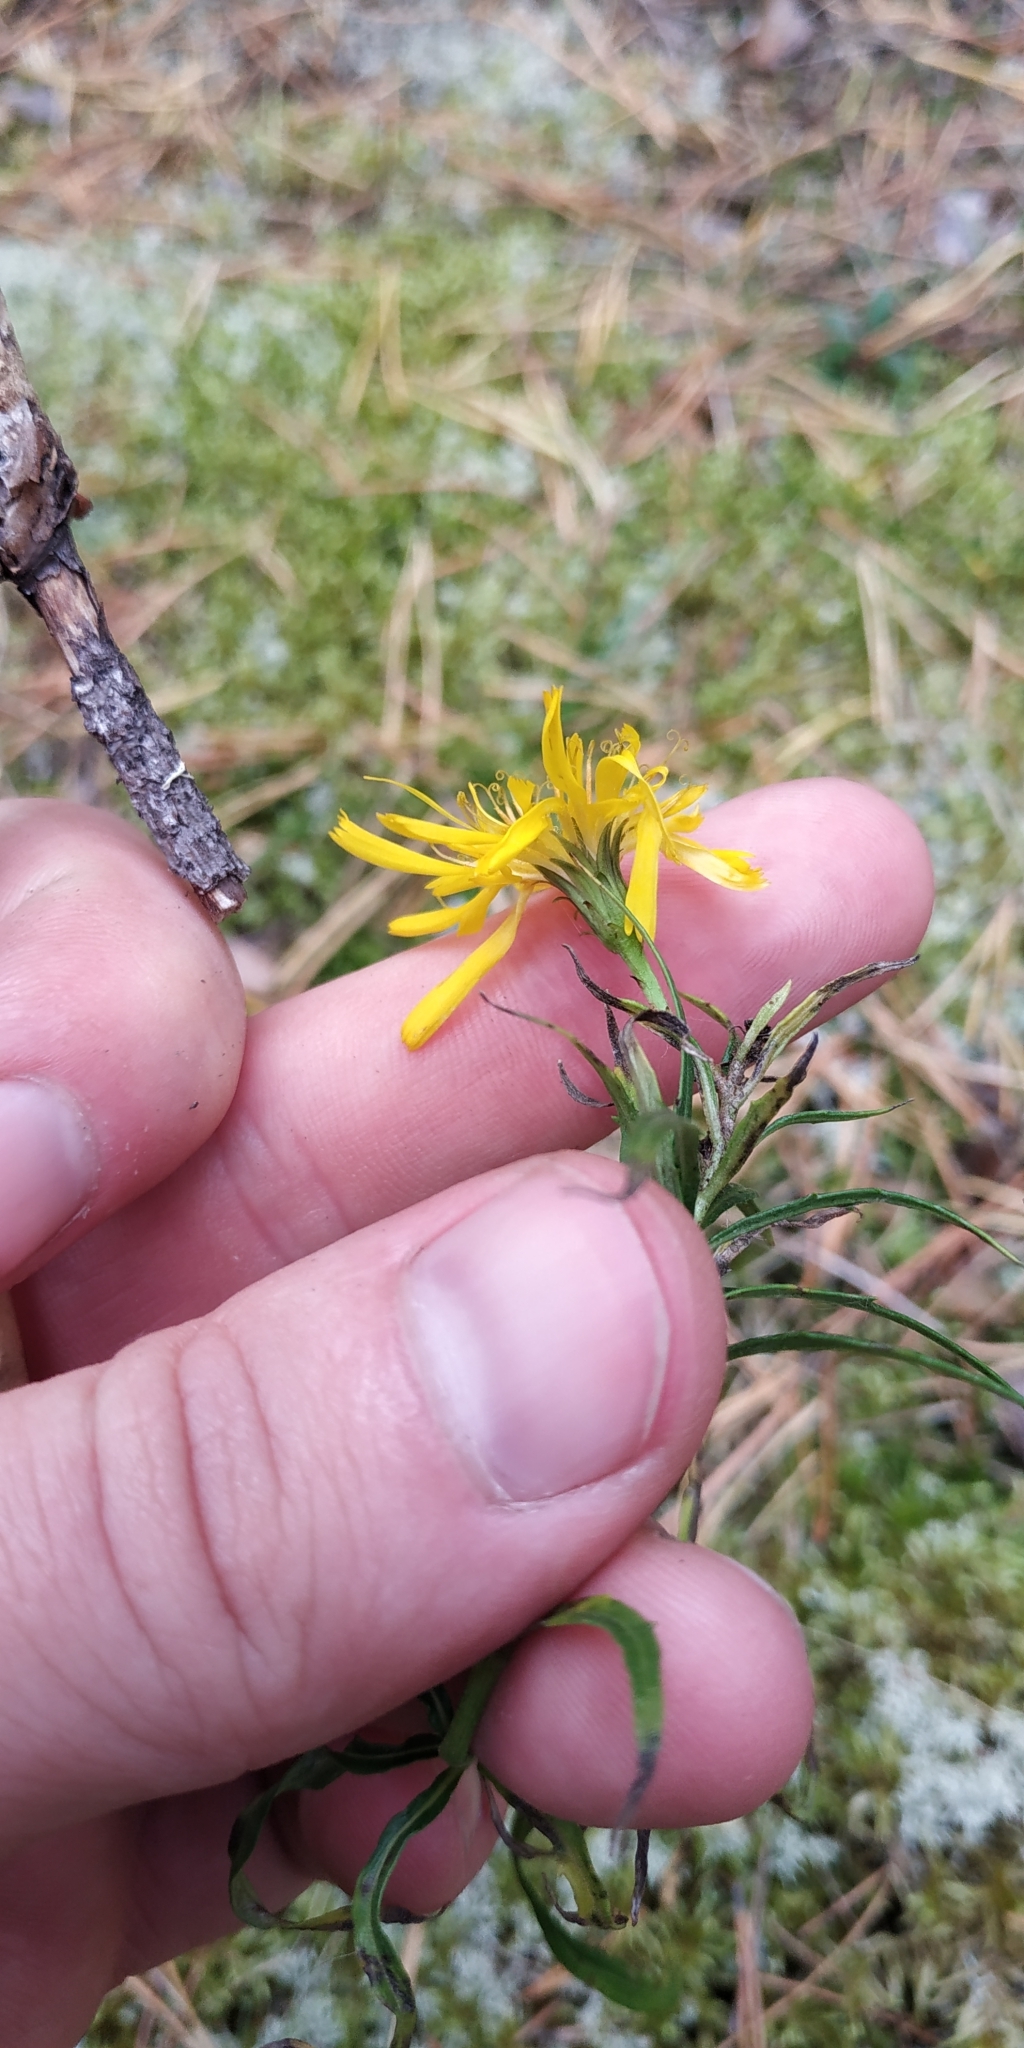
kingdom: Plantae
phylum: Tracheophyta
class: Magnoliopsida
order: Asterales
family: Asteraceae
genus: Hieracium
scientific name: Hieracium umbellatum
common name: Northern hawkweed
